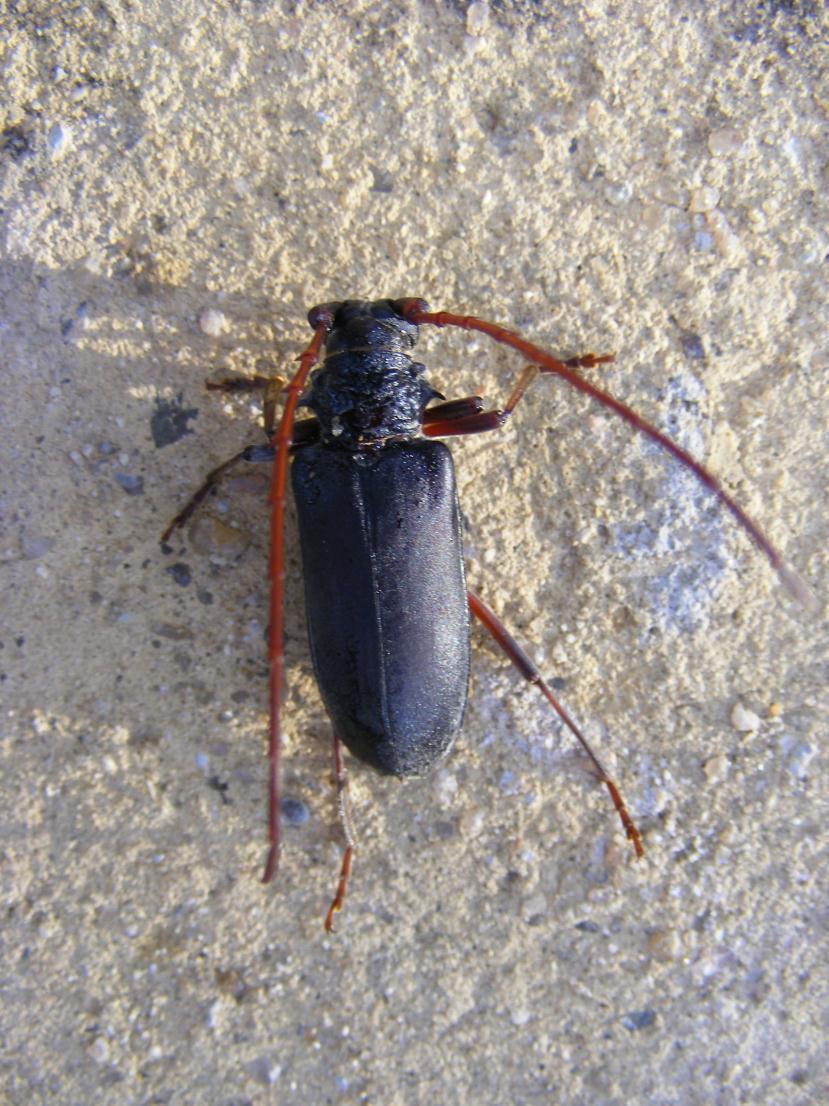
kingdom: Animalia
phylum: Arthropoda
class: Insecta
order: Coleoptera
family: Cerambycidae
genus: Neoplocaederus
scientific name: Neoplocaederus frenatus
